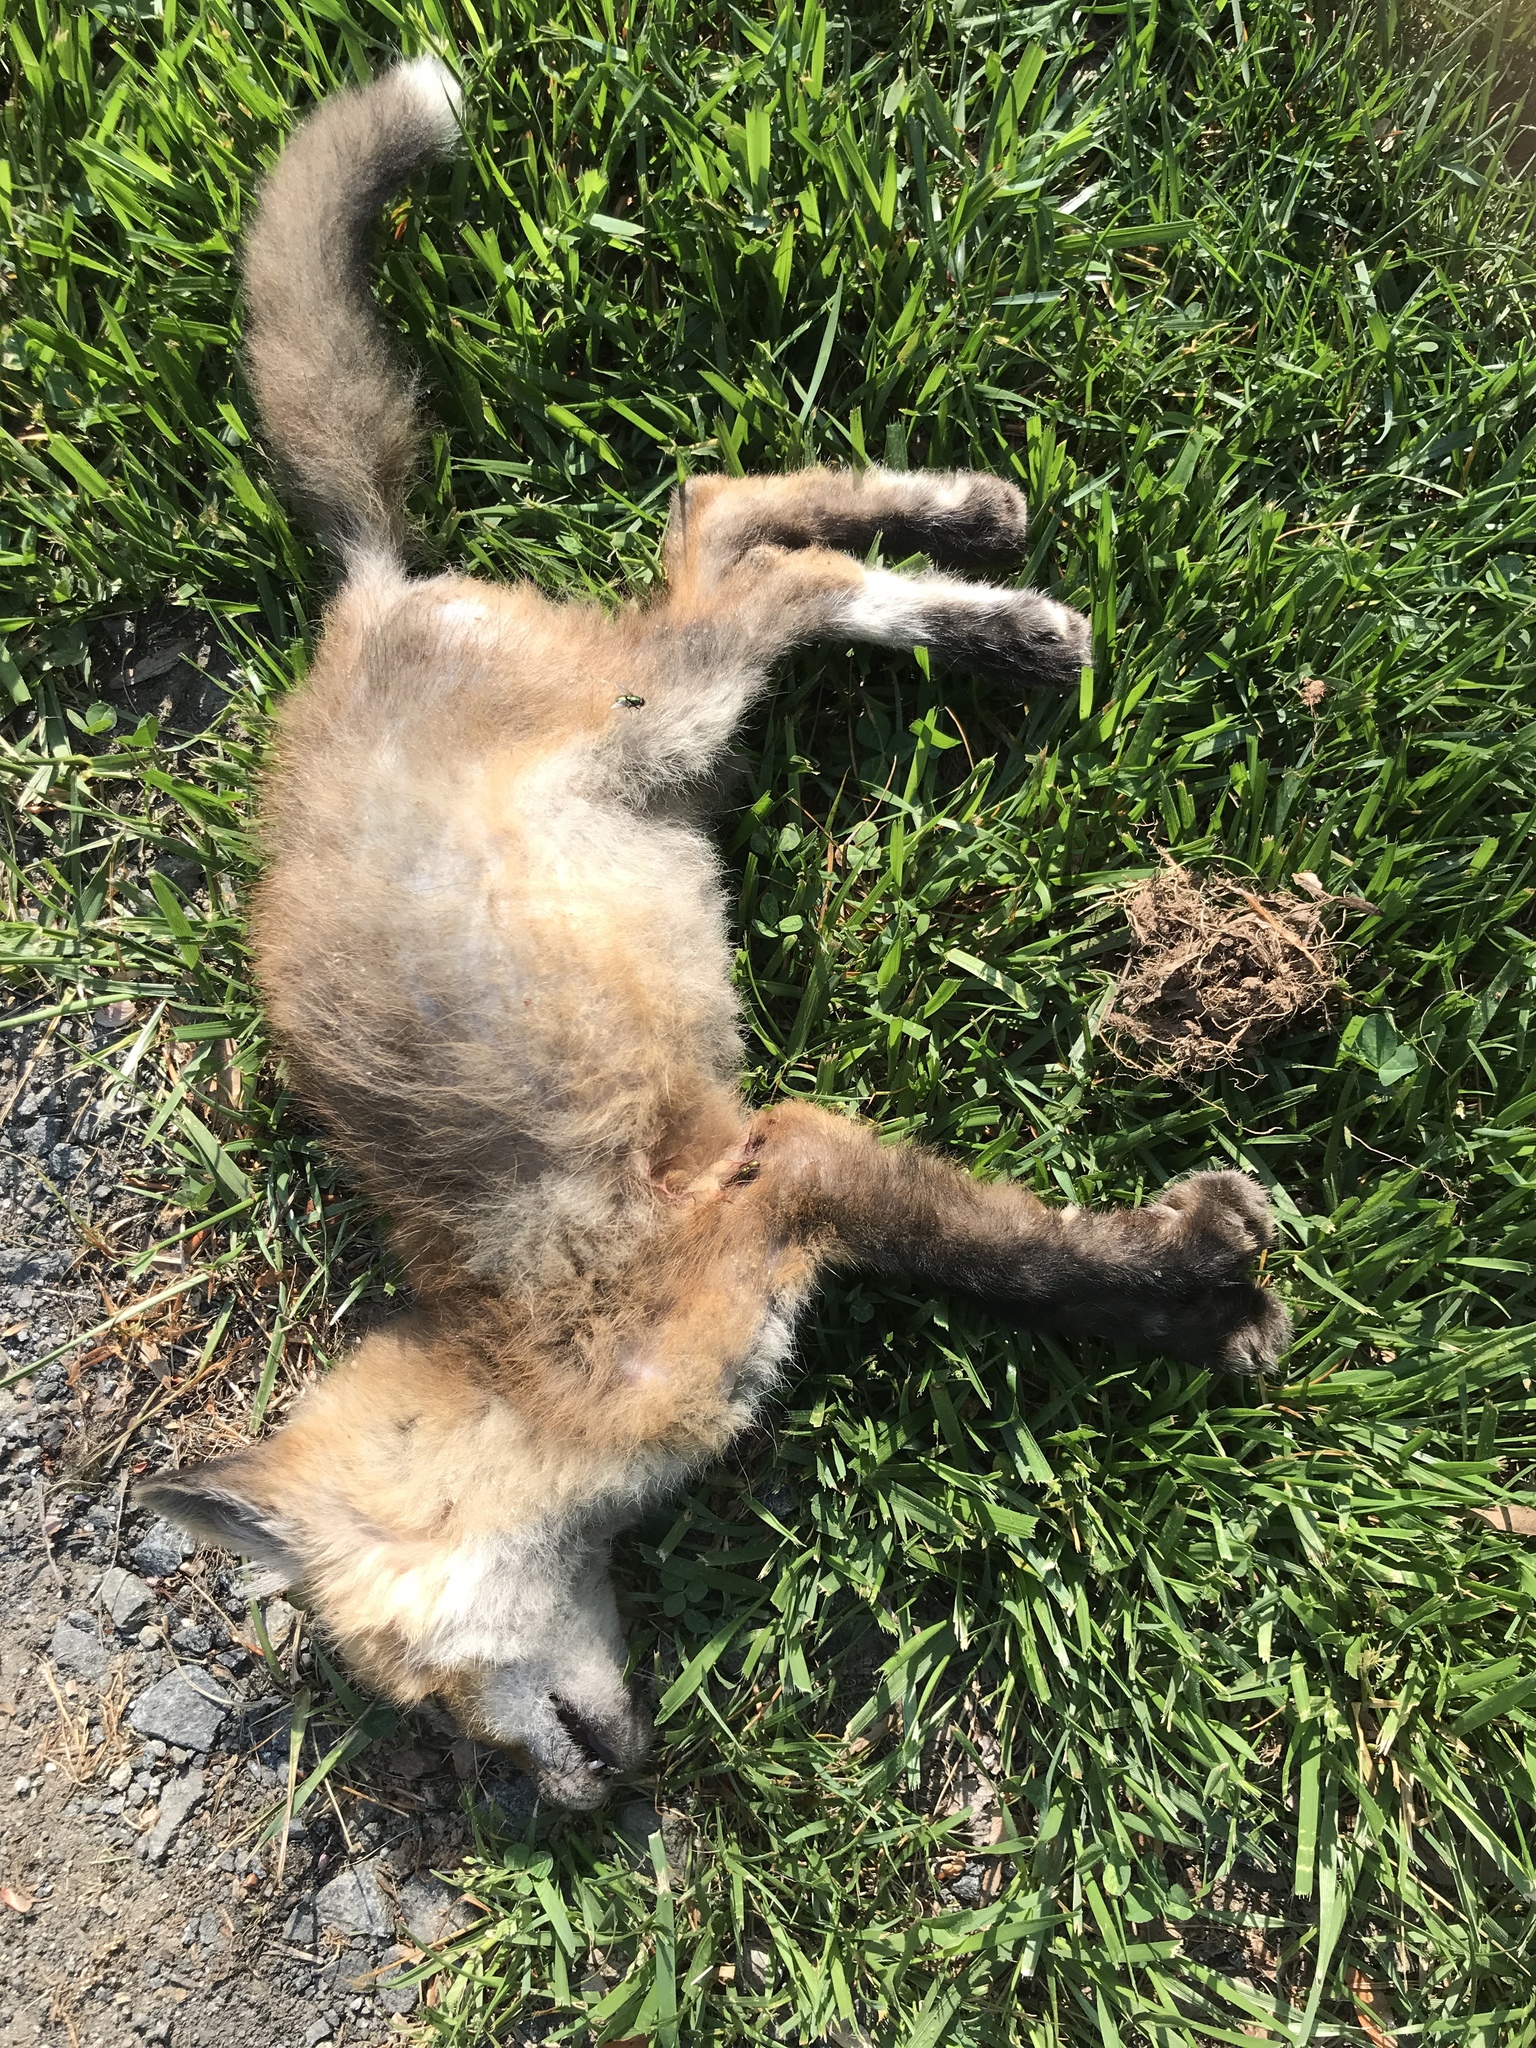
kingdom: Animalia
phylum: Chordata
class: Mammalia
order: Carnivora
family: Canidae
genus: Vulpes
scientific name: Vulpes vulpes
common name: Red fox
